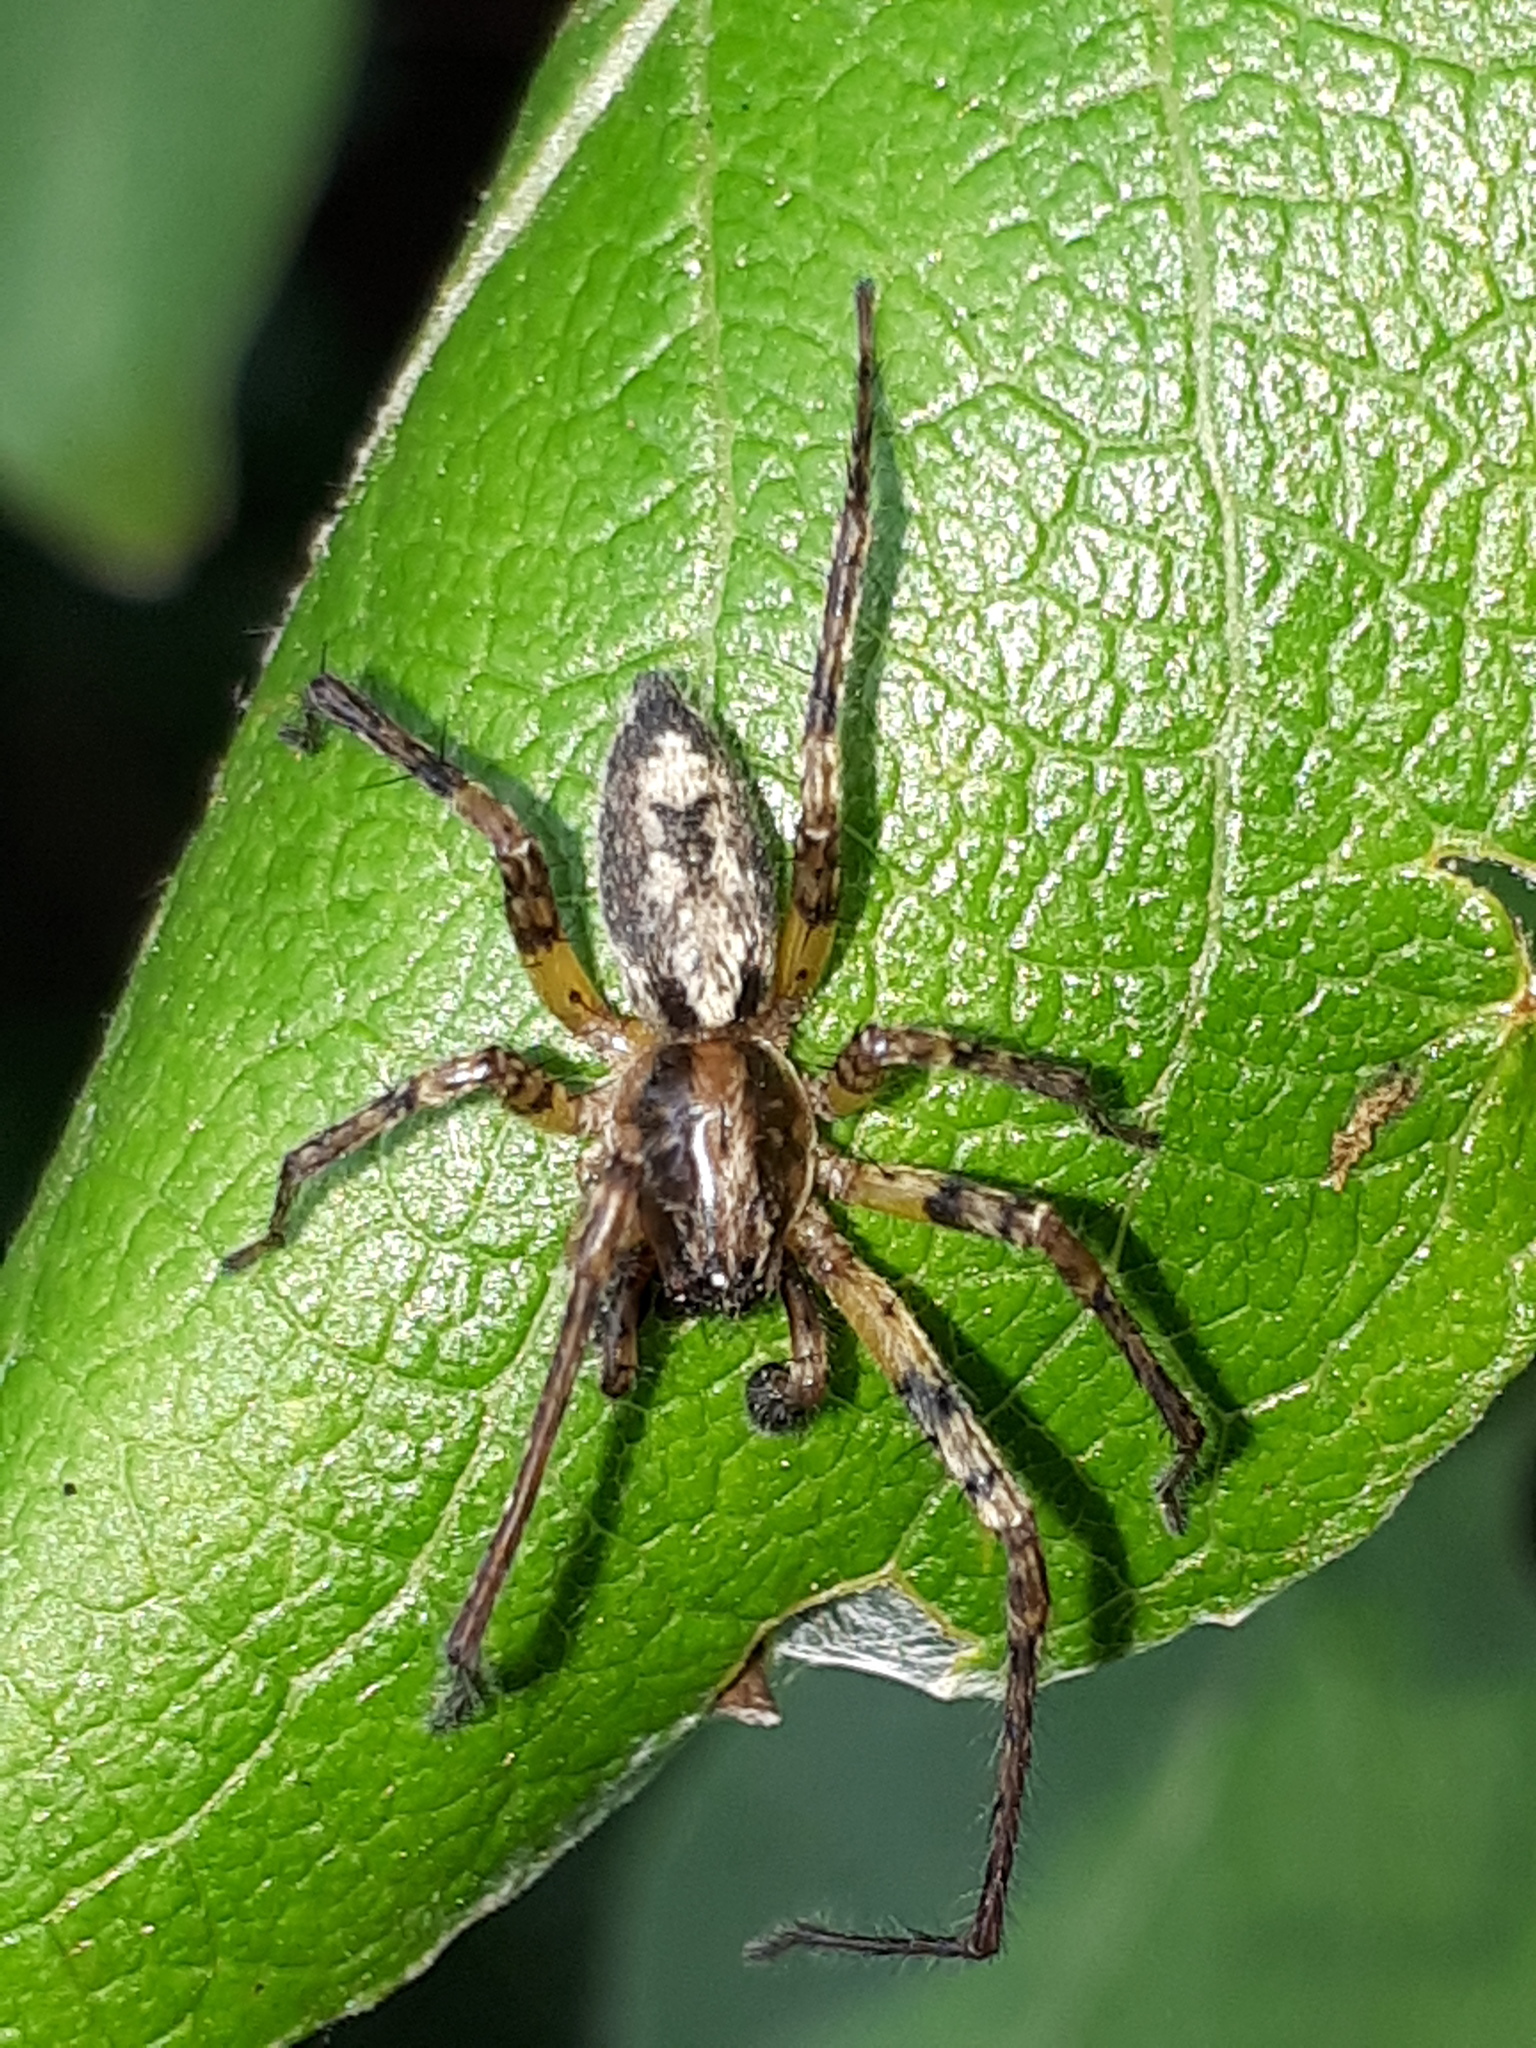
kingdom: Animalia
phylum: Arthropoda
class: Arachnida
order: Araneae
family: Anyphaenidae
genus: Anyphaena
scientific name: Anyphaena accentuata
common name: Buzzing spider
